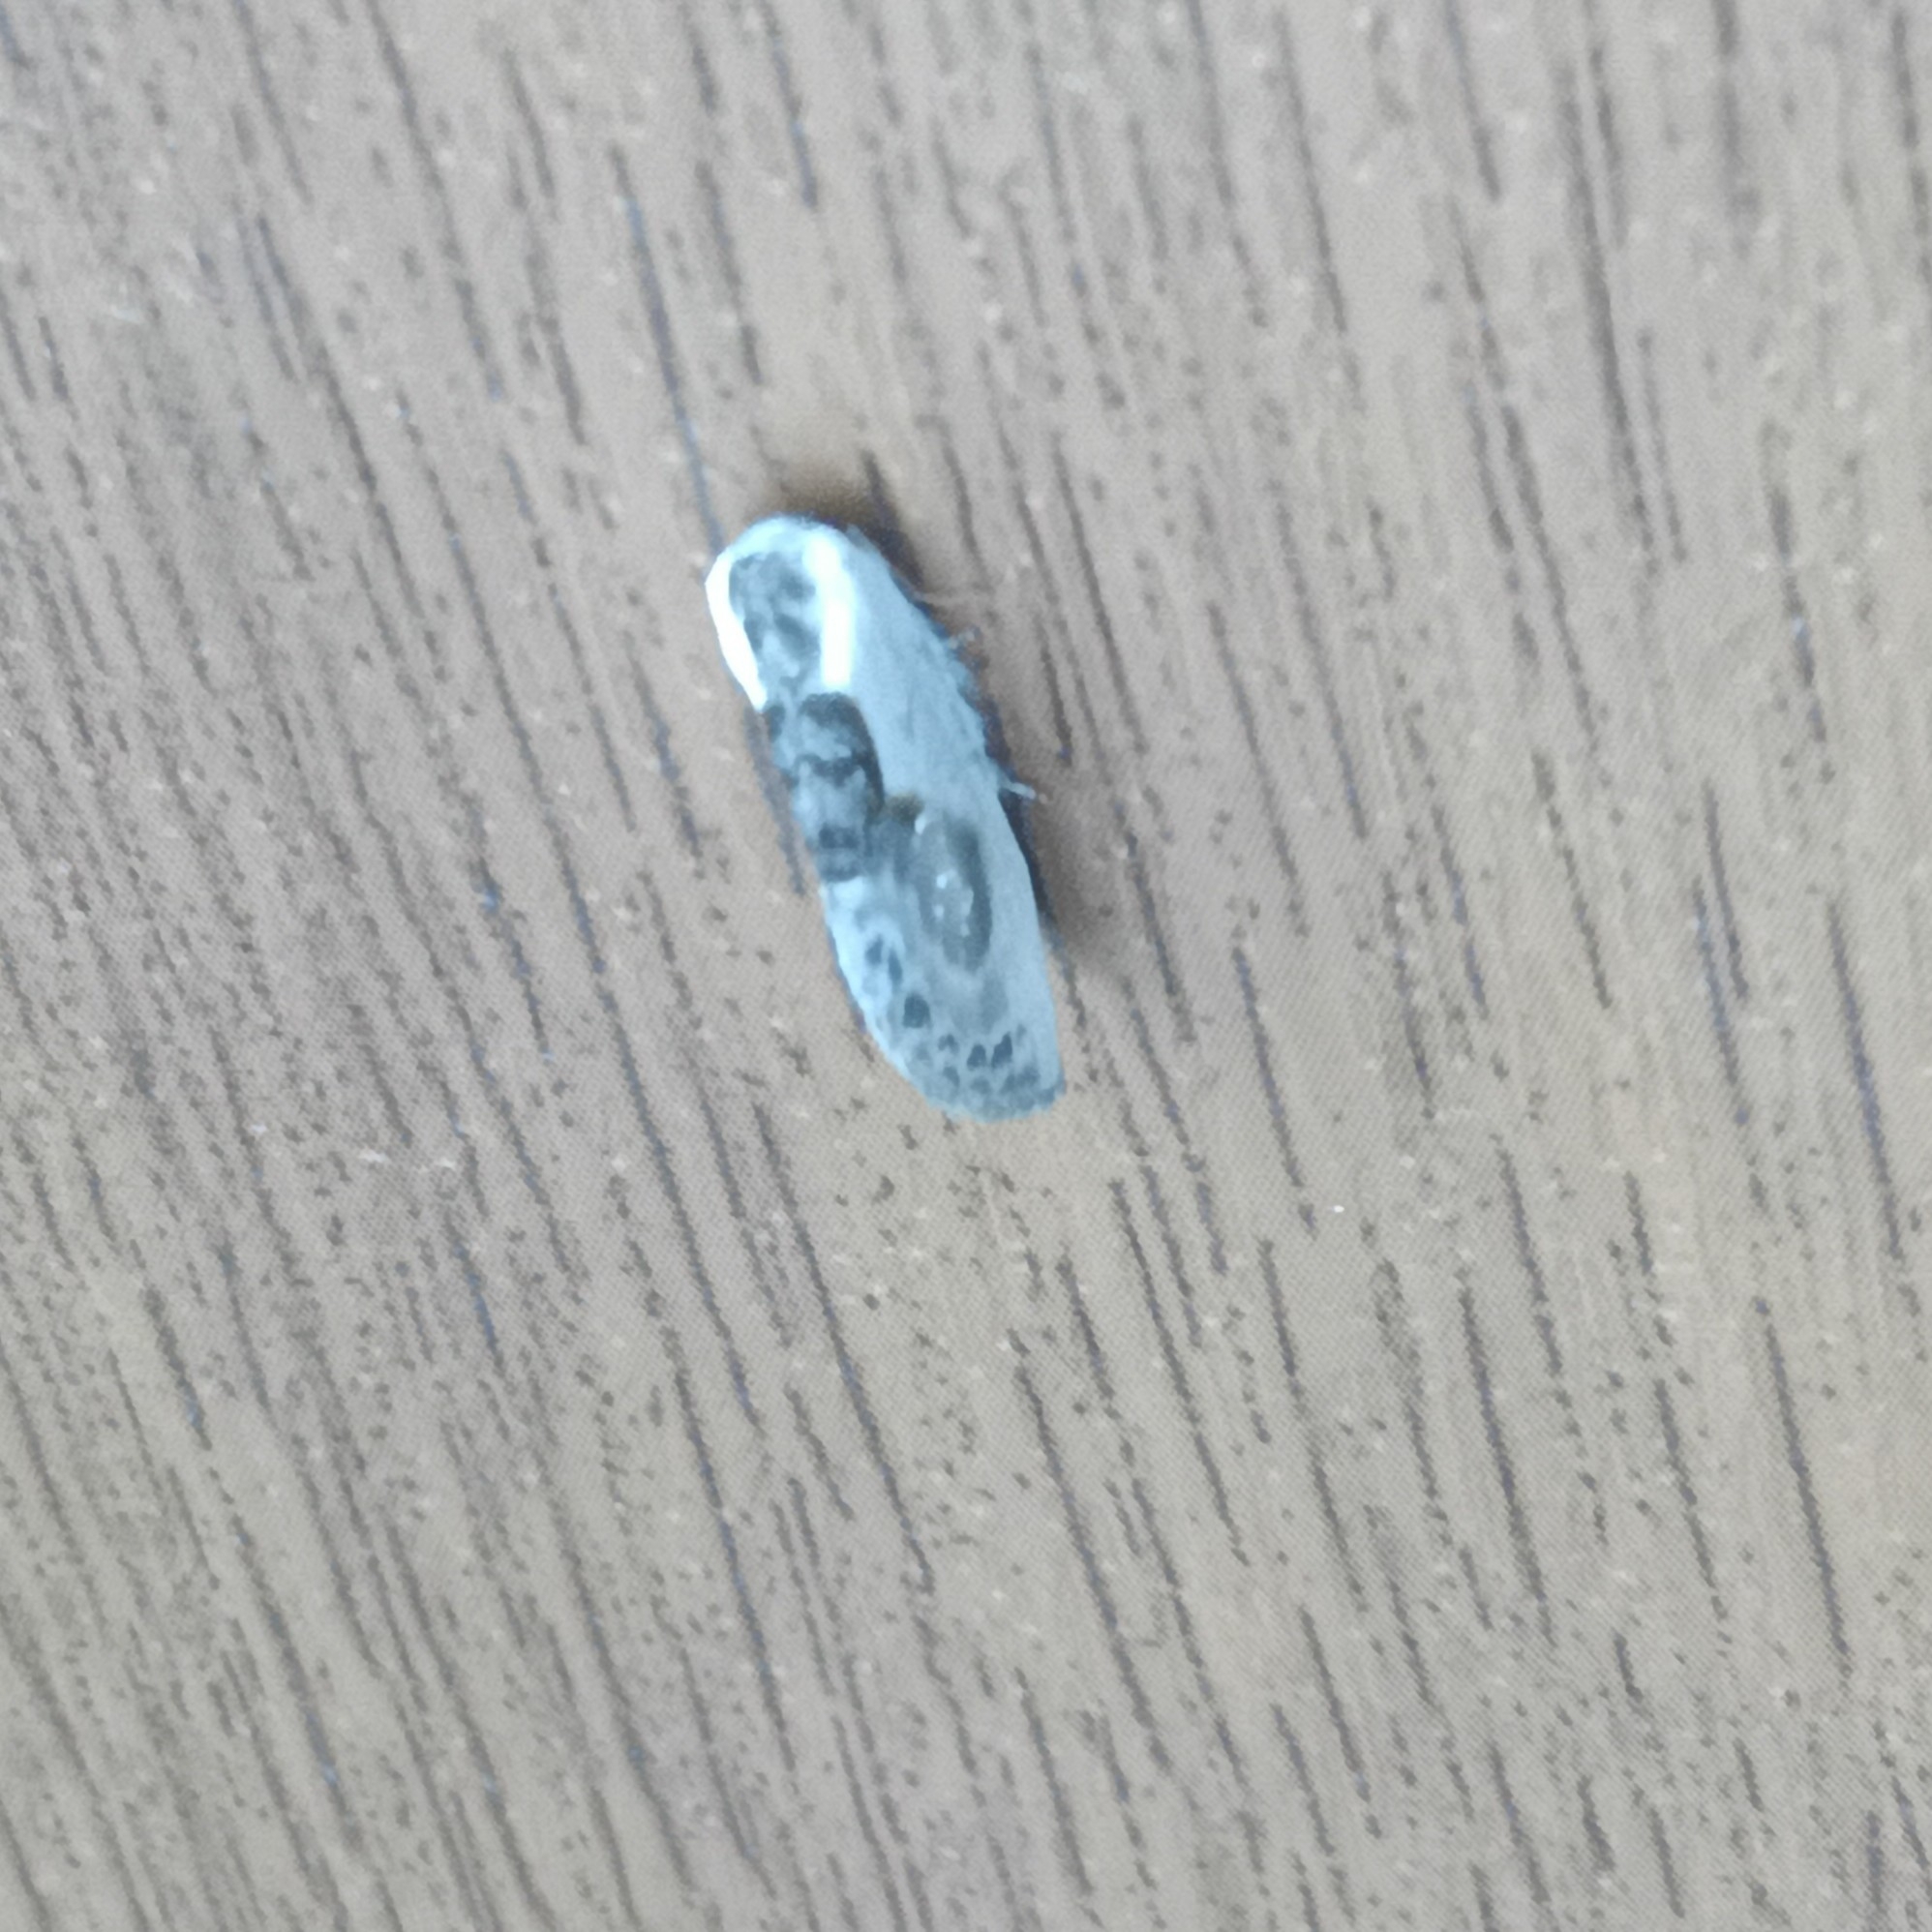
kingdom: Animalia
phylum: Arthropoda
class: Insecta
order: Lepidoptera
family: Drepanidae
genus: Cilix
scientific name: Cilix glaucata
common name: Chinese character
